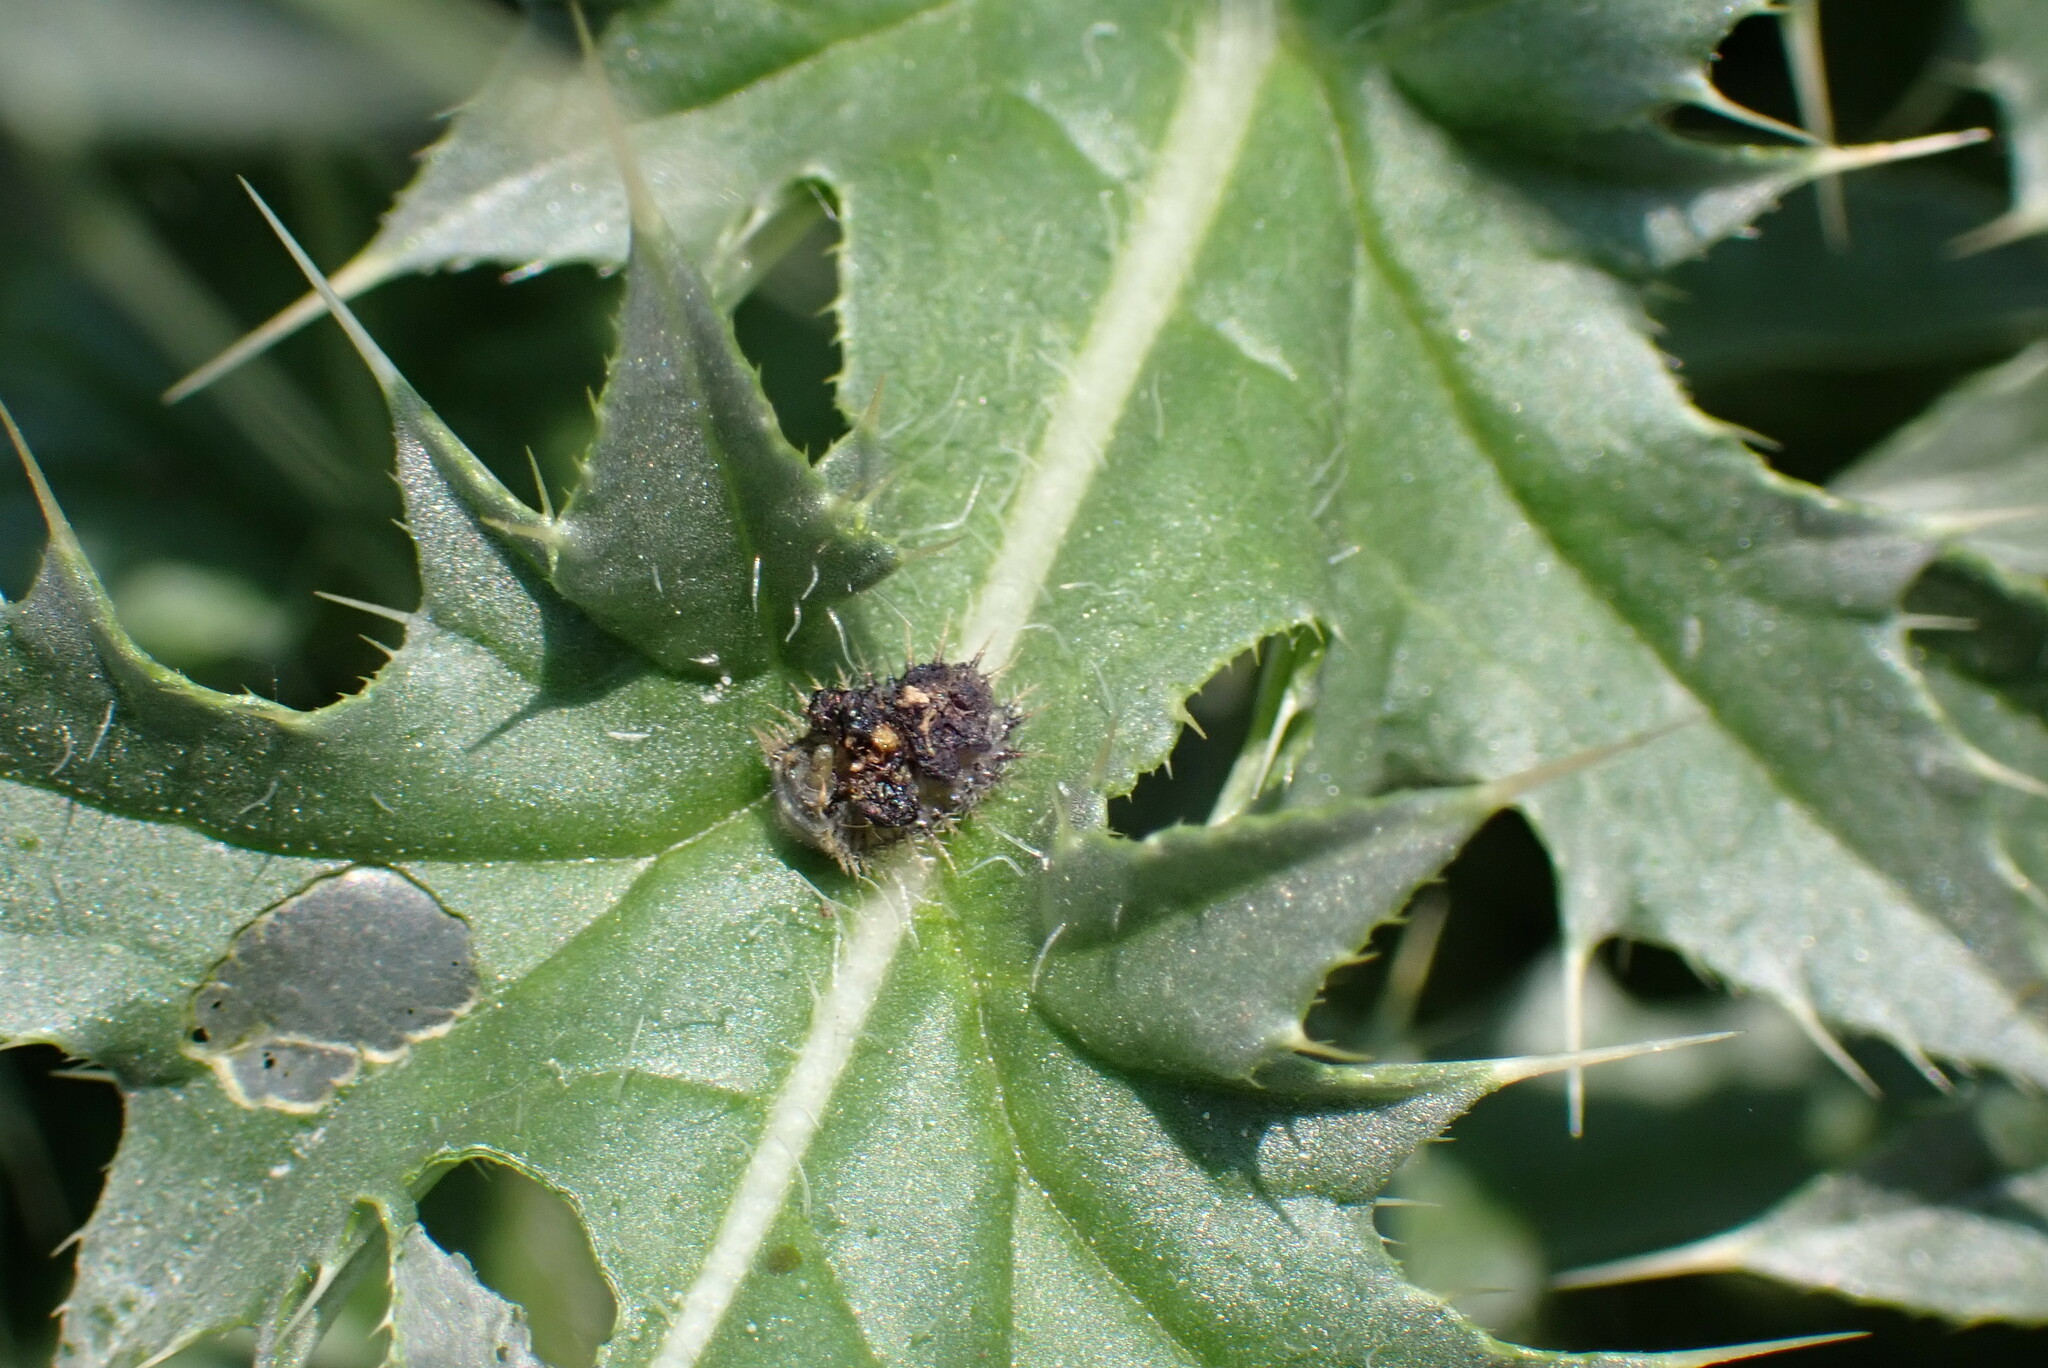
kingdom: Animalia
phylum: Arthropoda
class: Insecta
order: Coleoptera
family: Chrysomelidae
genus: Cassida
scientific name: Cassida rubiginosa
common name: Thistle tortoise beetle
